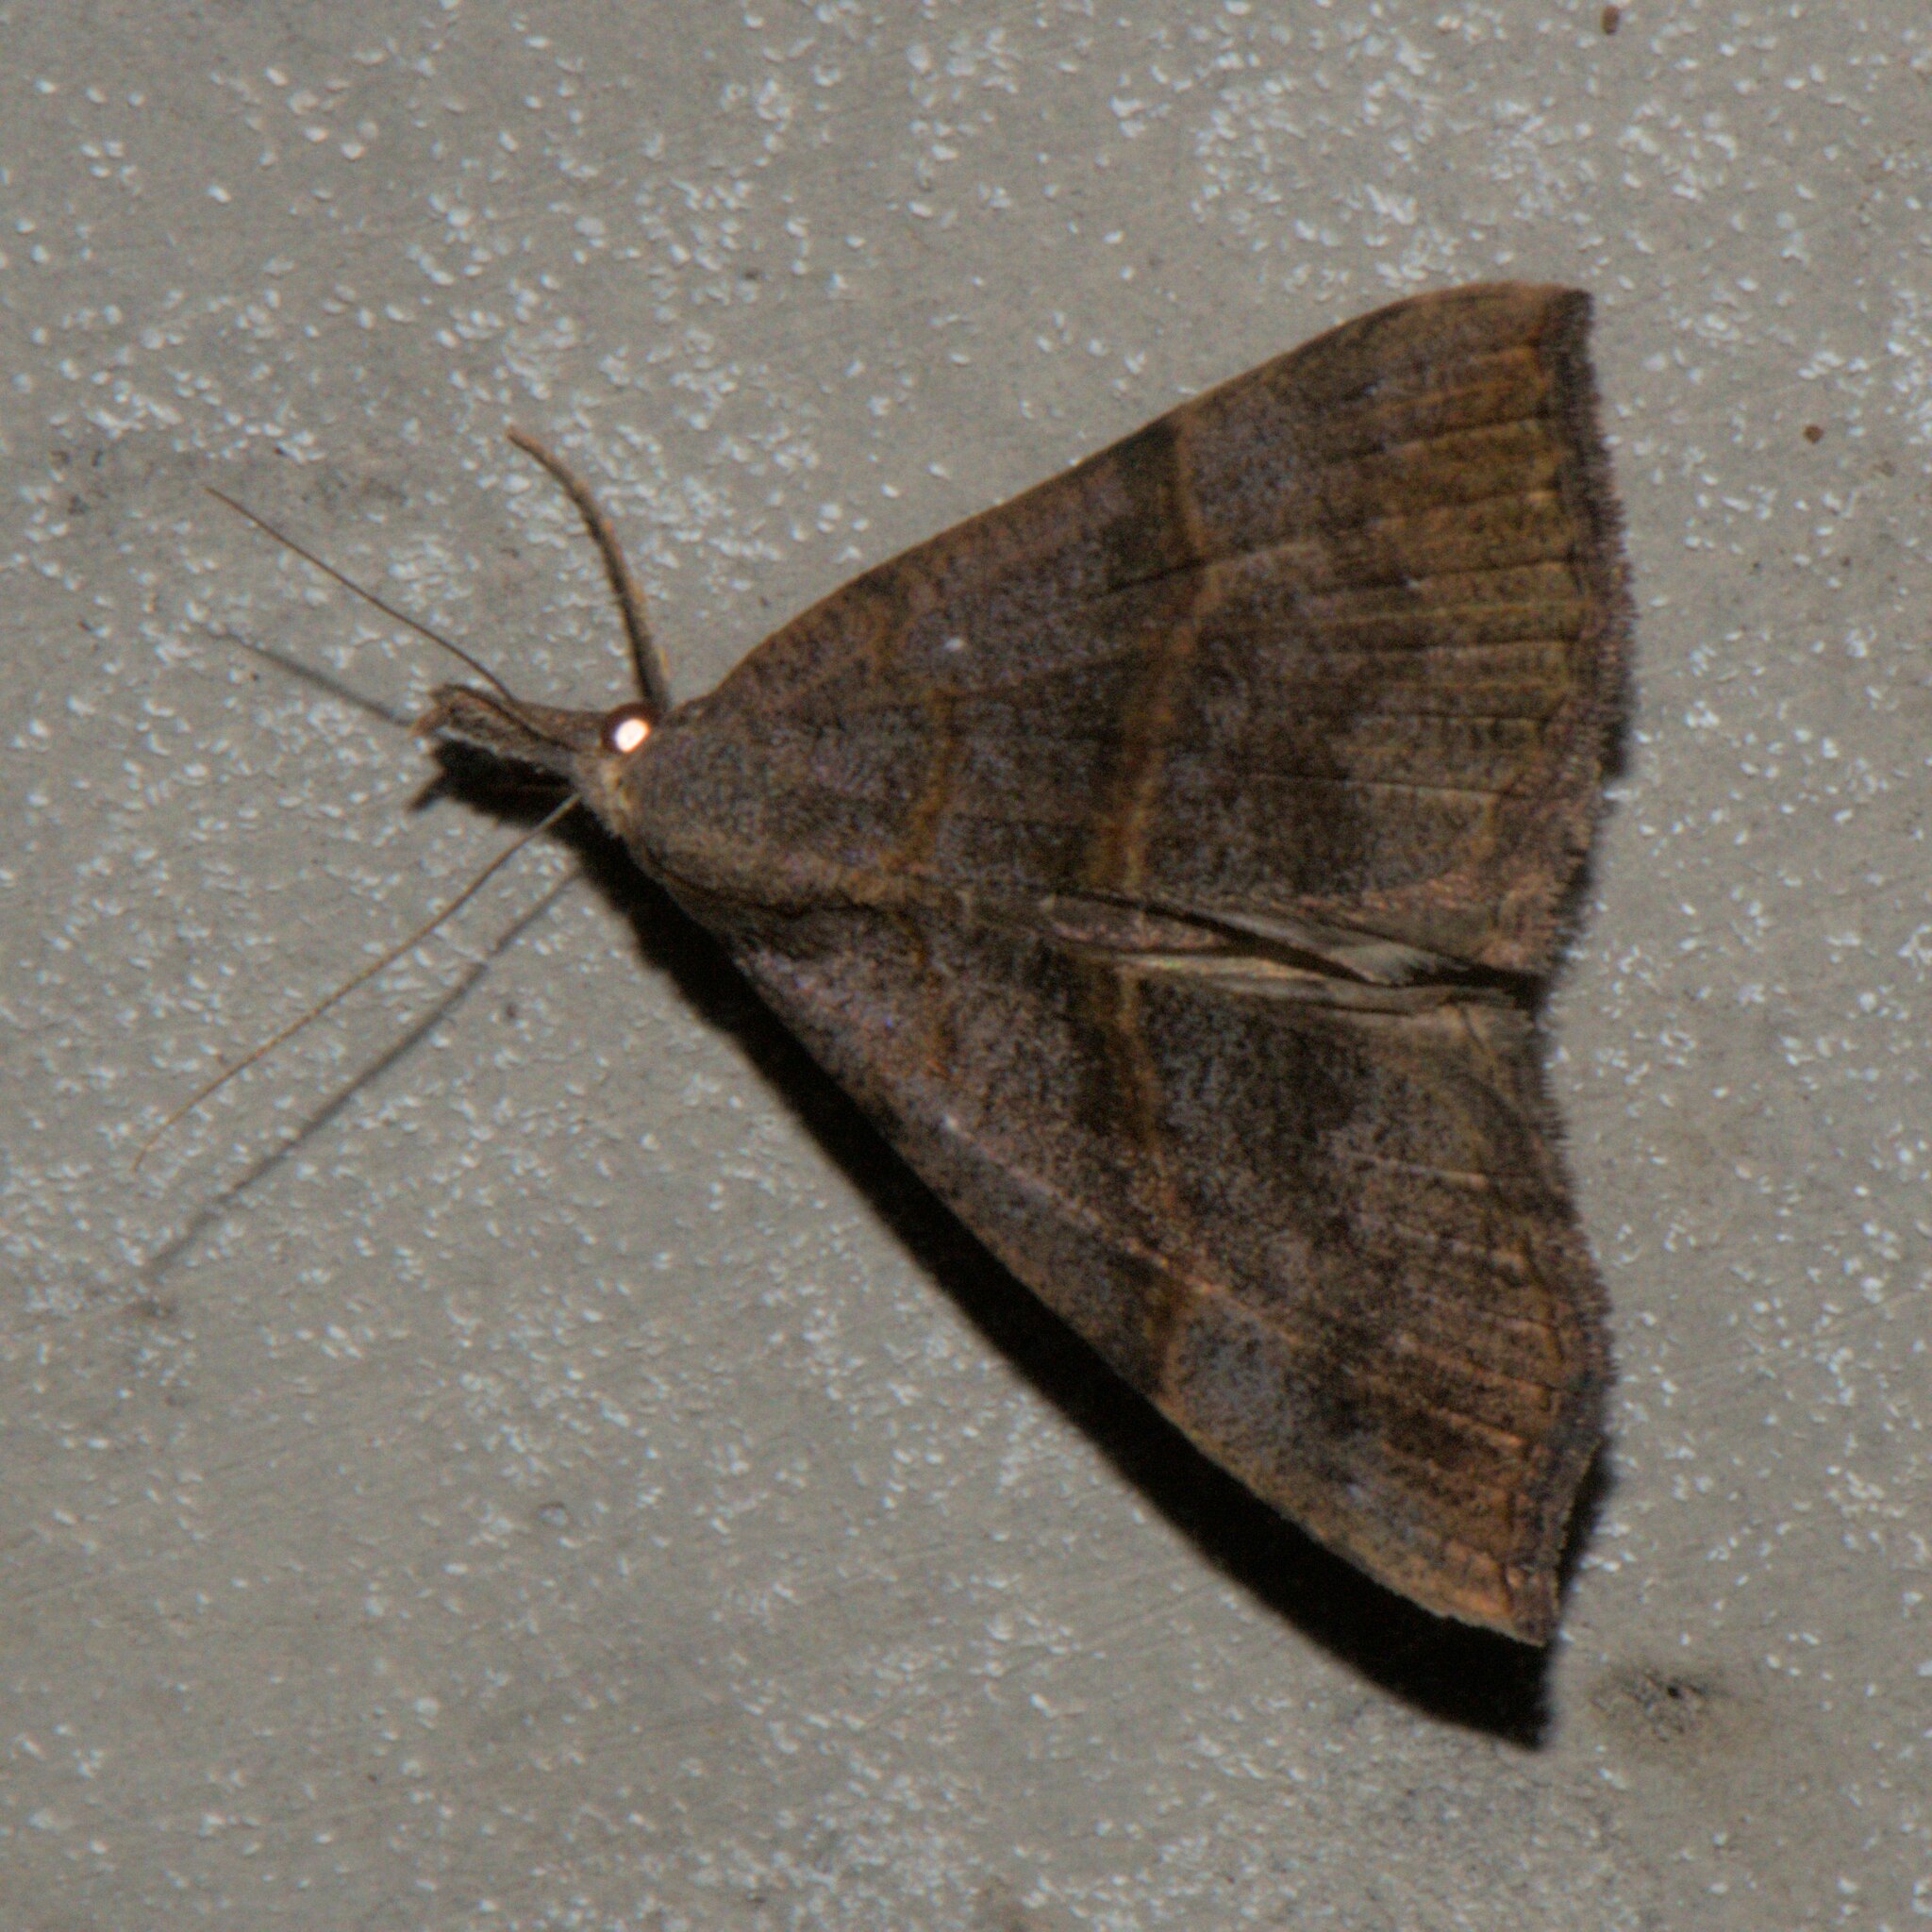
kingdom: Animalia
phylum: Arthropoda
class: Insecta
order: Lepidoptera
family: Erebidae
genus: Hypena
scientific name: Hypena proboscidalis
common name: Snout
